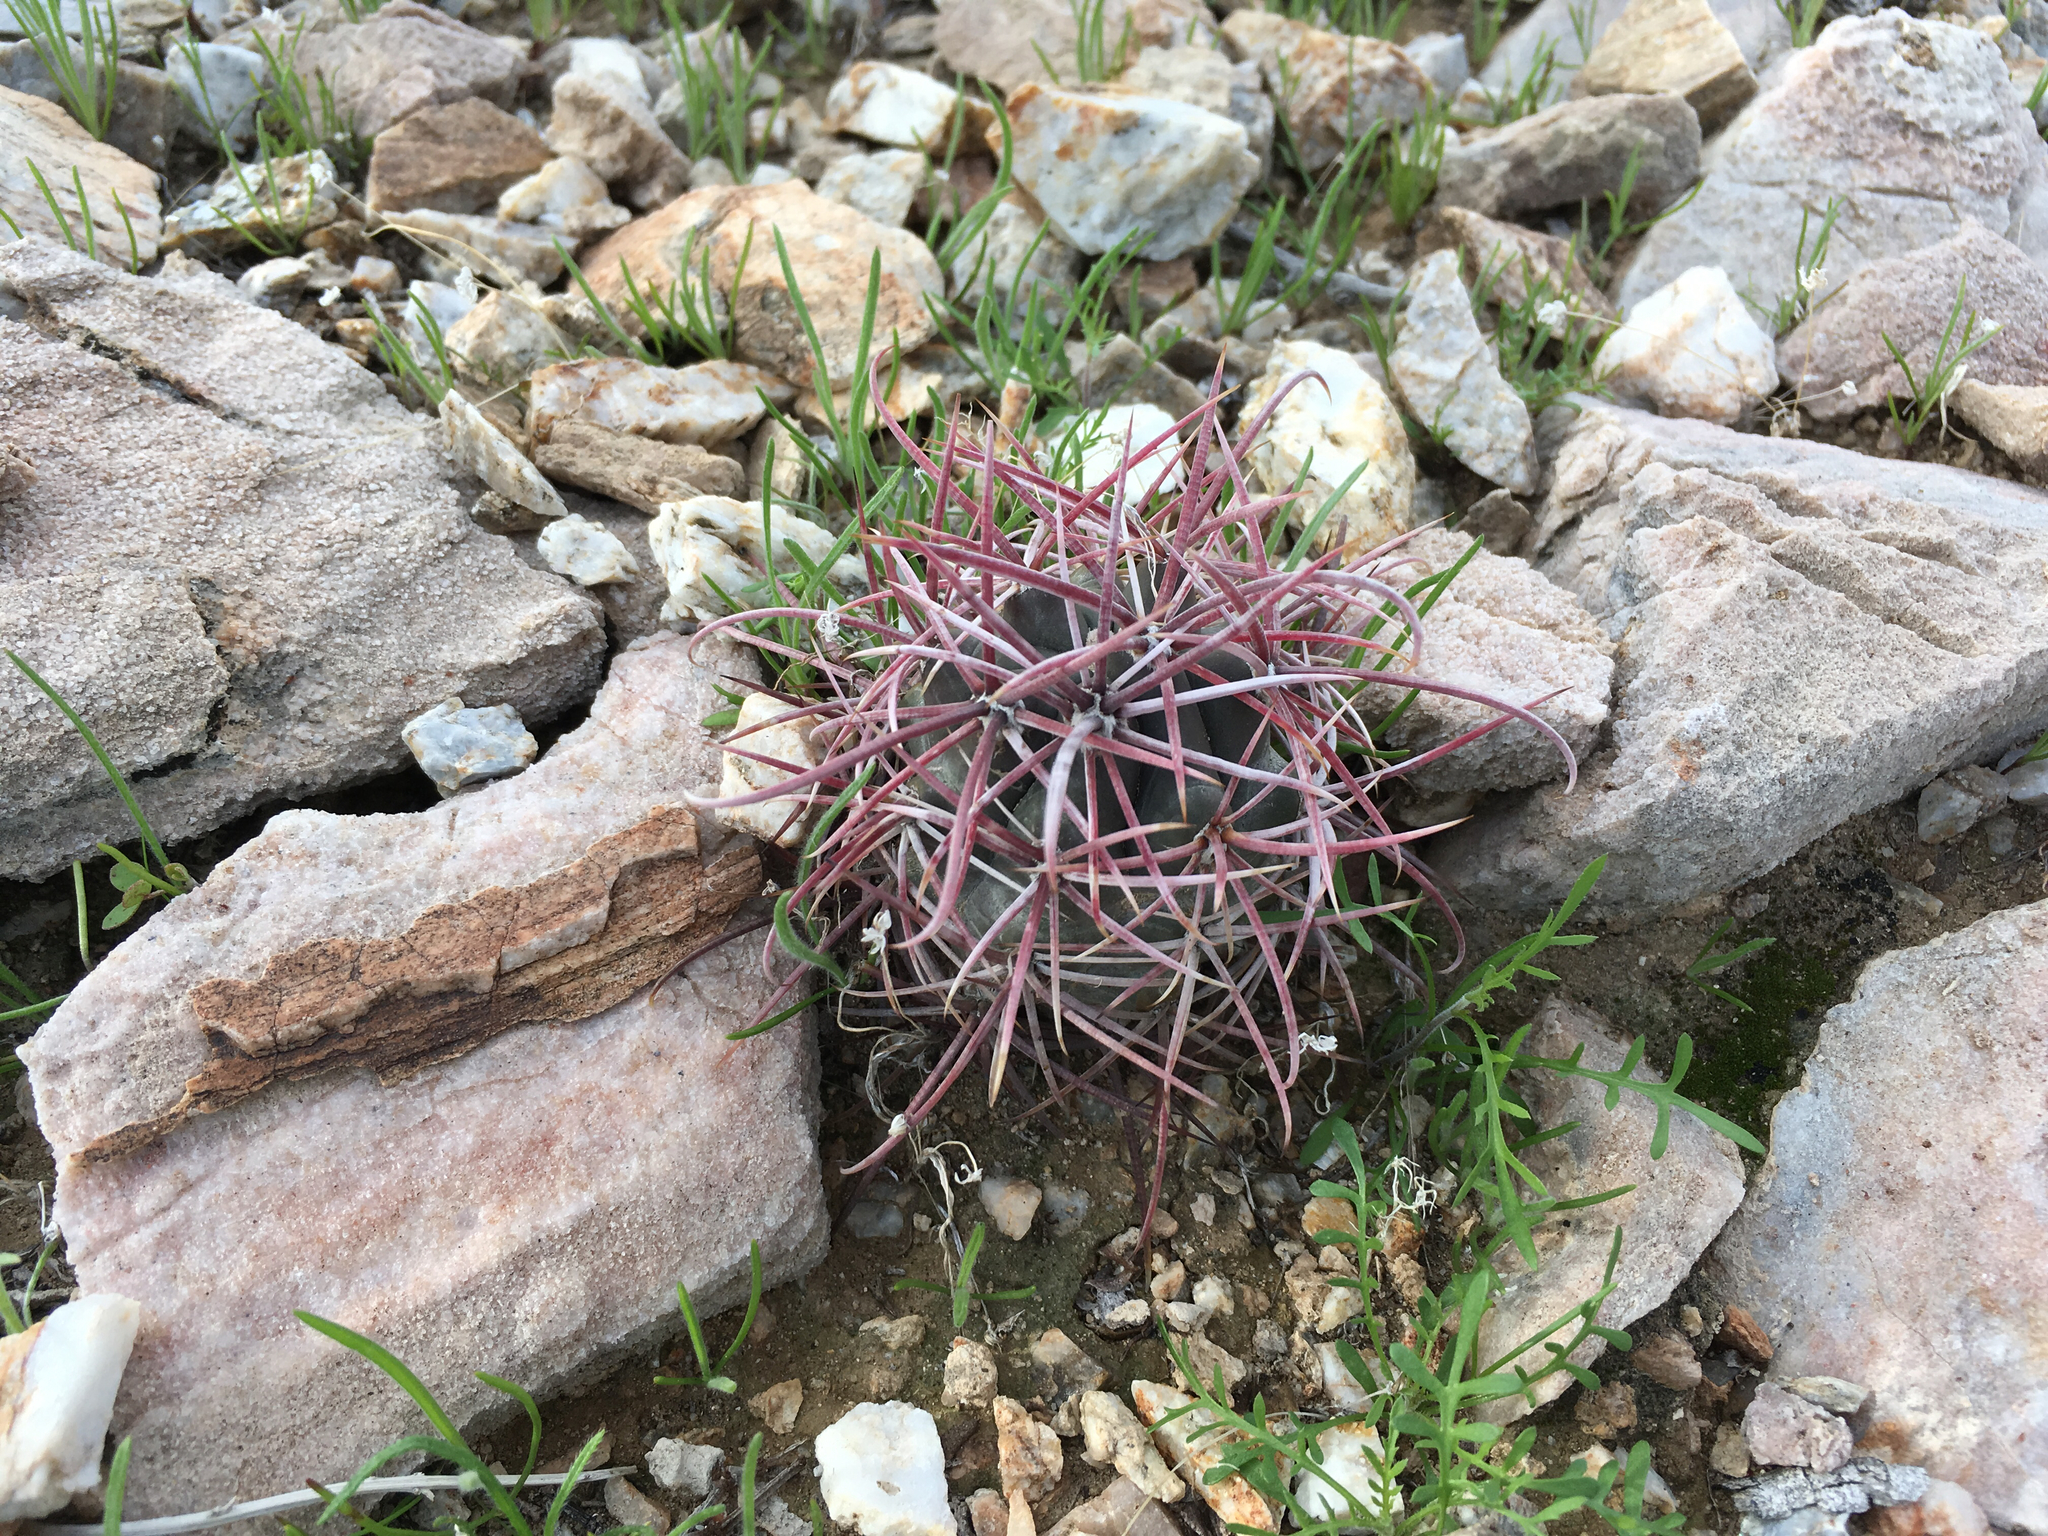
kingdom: Plantae
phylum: Tracheophyta
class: Magnoliopsida
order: Caryophyllales
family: Cactaceae
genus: Ferocactus
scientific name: Ferocactus cylindraceus
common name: California barrel cactus
